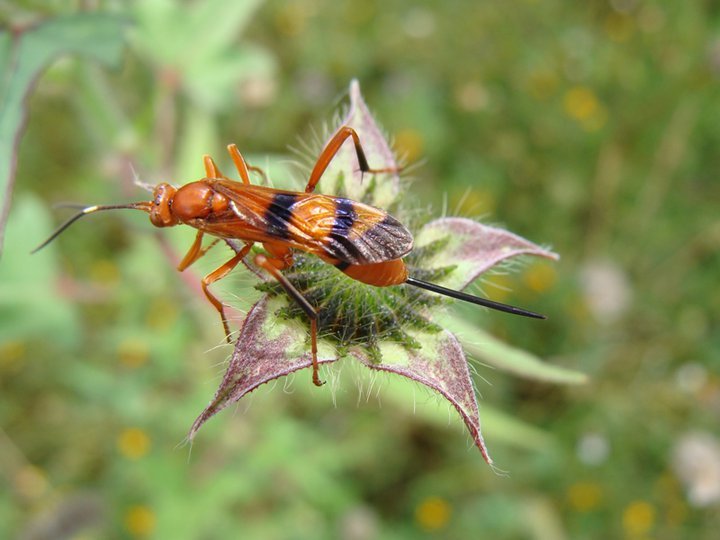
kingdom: Animalia
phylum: Arthropoda
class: Insecta
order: Hymenoptera
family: Ichneumonidae
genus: Compsocryptus
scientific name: Compsocryptus calipterus
